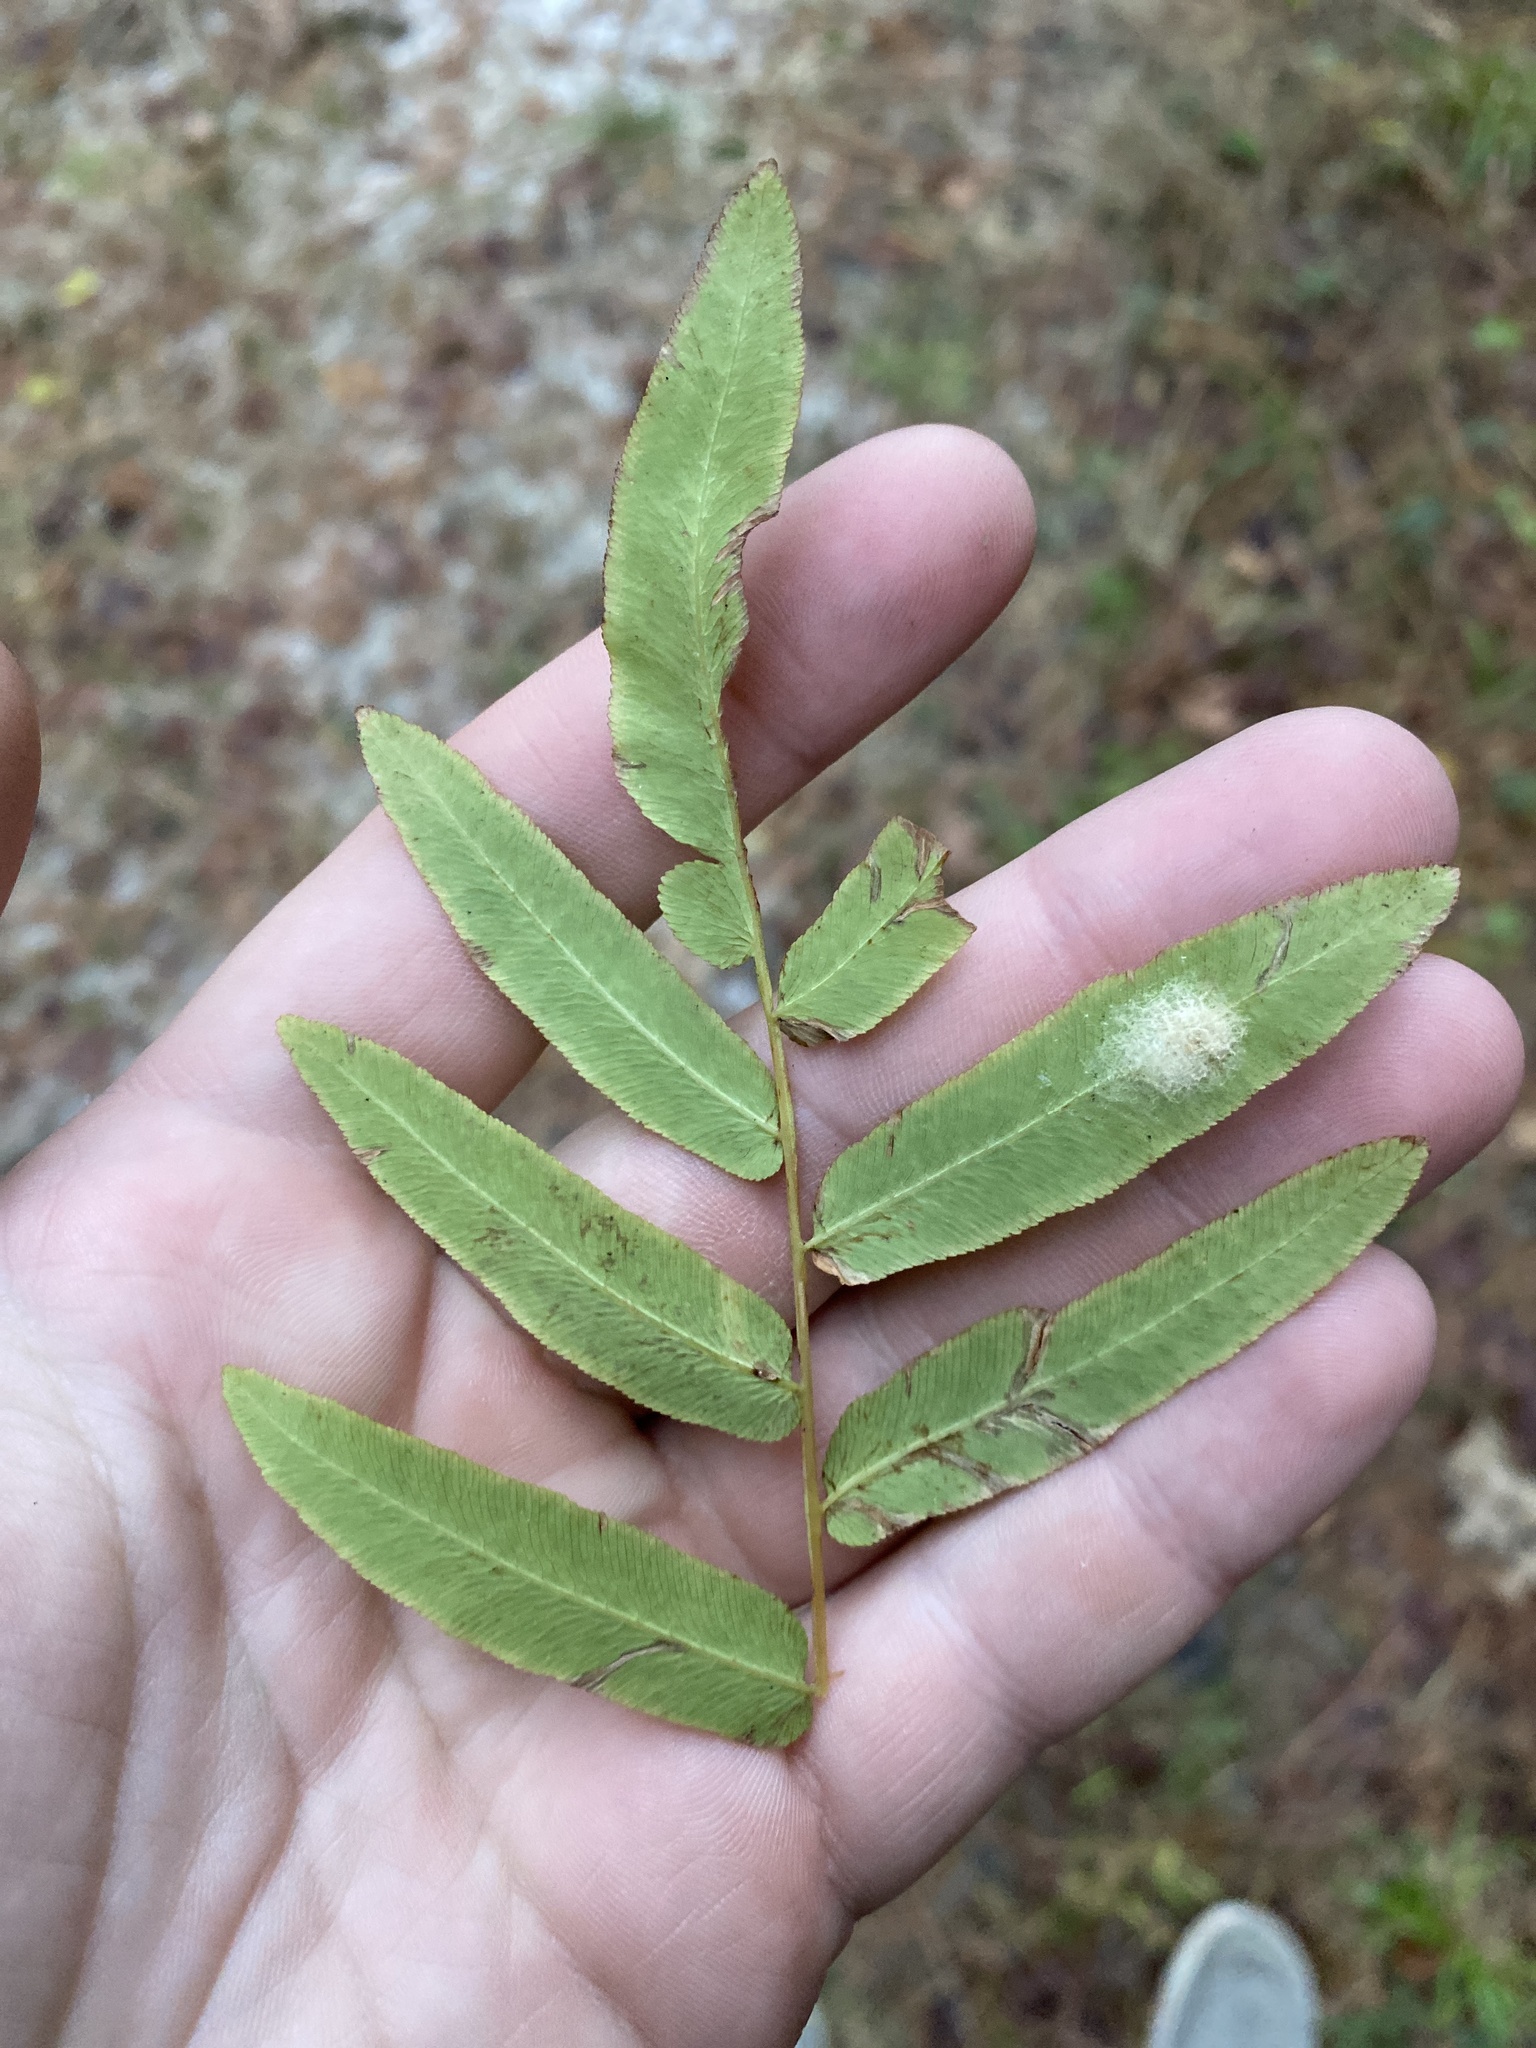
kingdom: Plantae
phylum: Tracheophyta
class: Polypodiopsida
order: Osmundales
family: Osmundaceae
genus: Osmunda
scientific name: Osmunda spectabilis
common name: American royal fern
